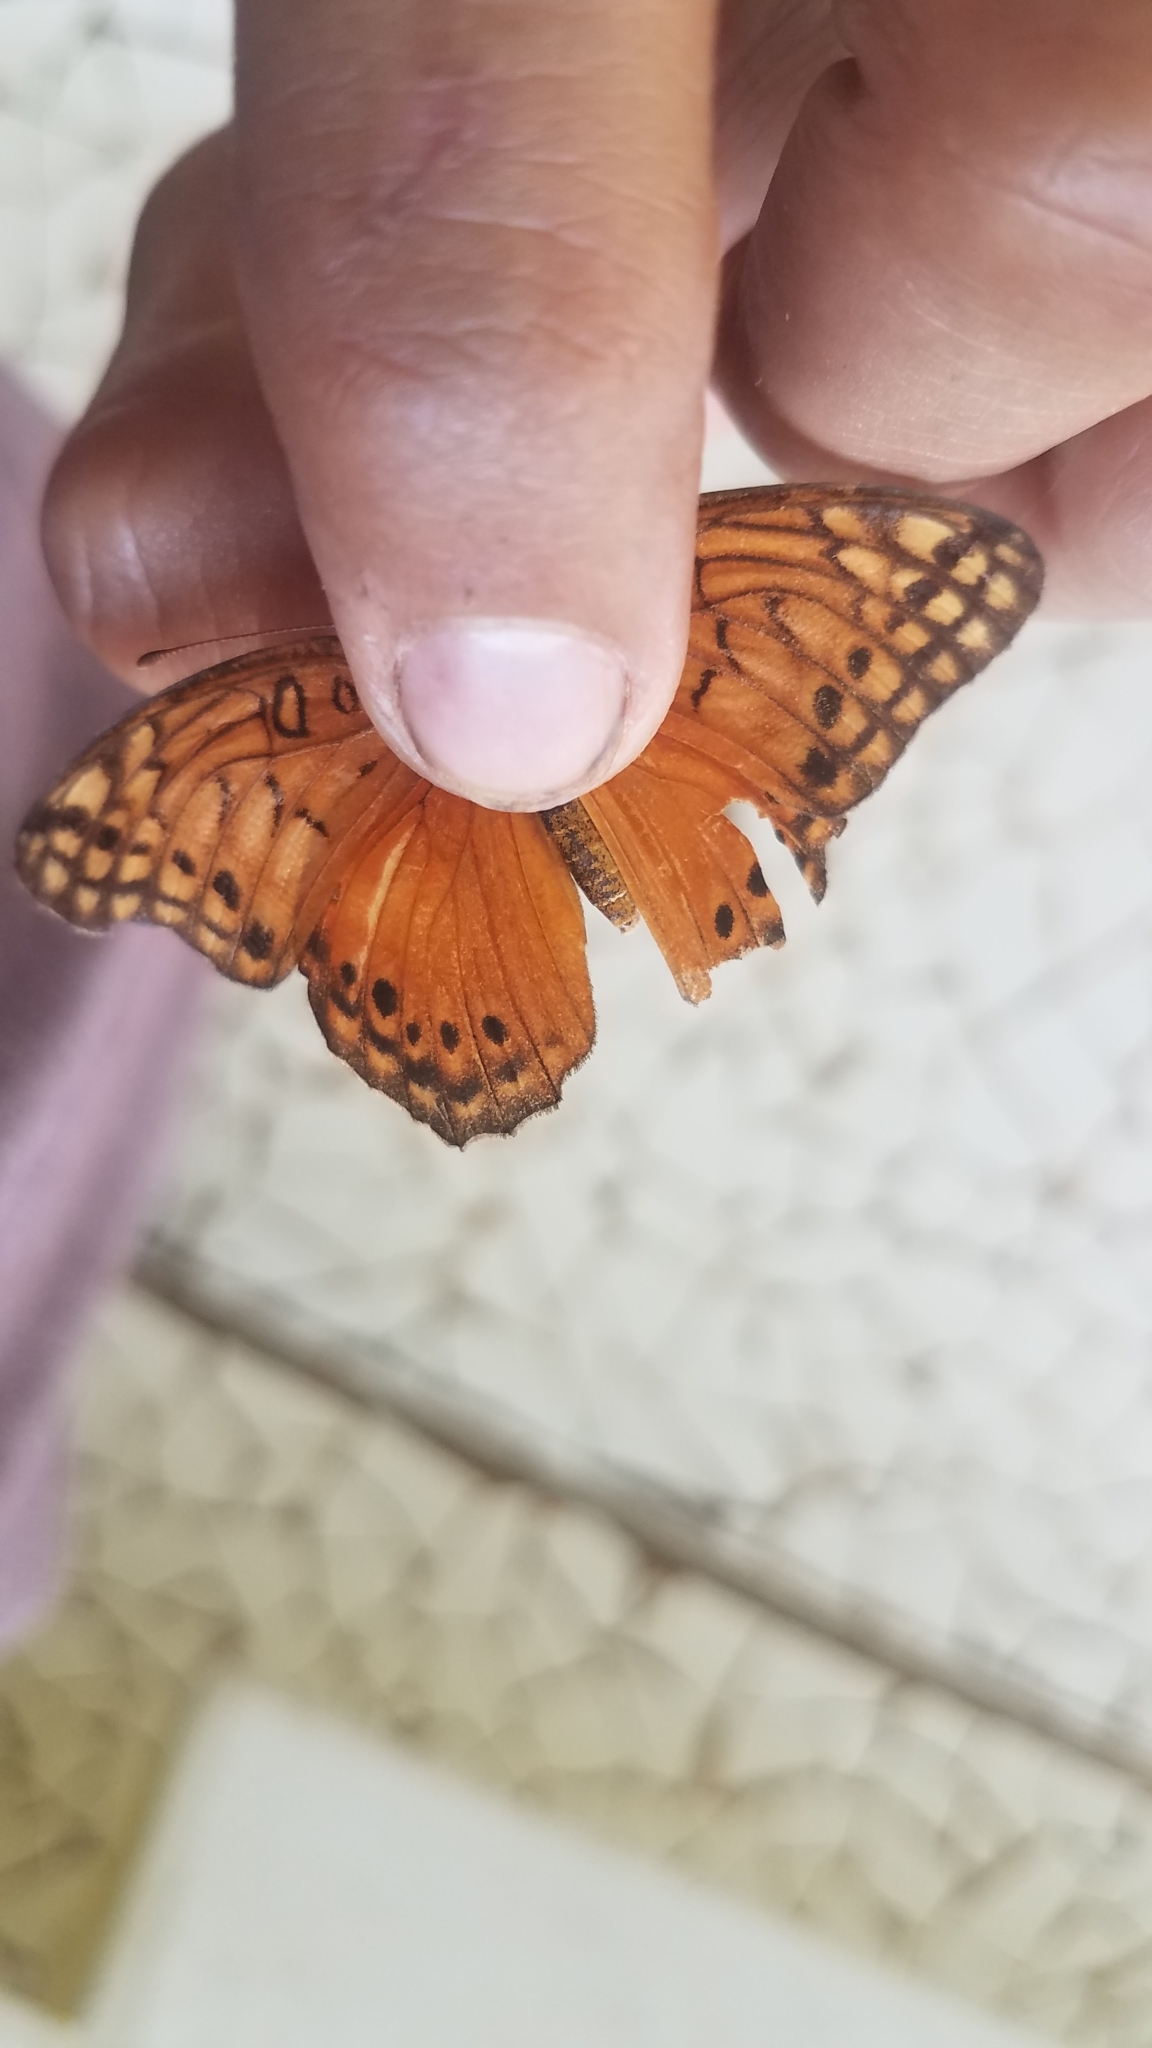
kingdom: Animalia
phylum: Arthropoda
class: Insecta
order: Lepidoptera
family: Nymphalidae
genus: Euptoieta
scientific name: Euptoieta hegesia
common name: Mexican fritillary
